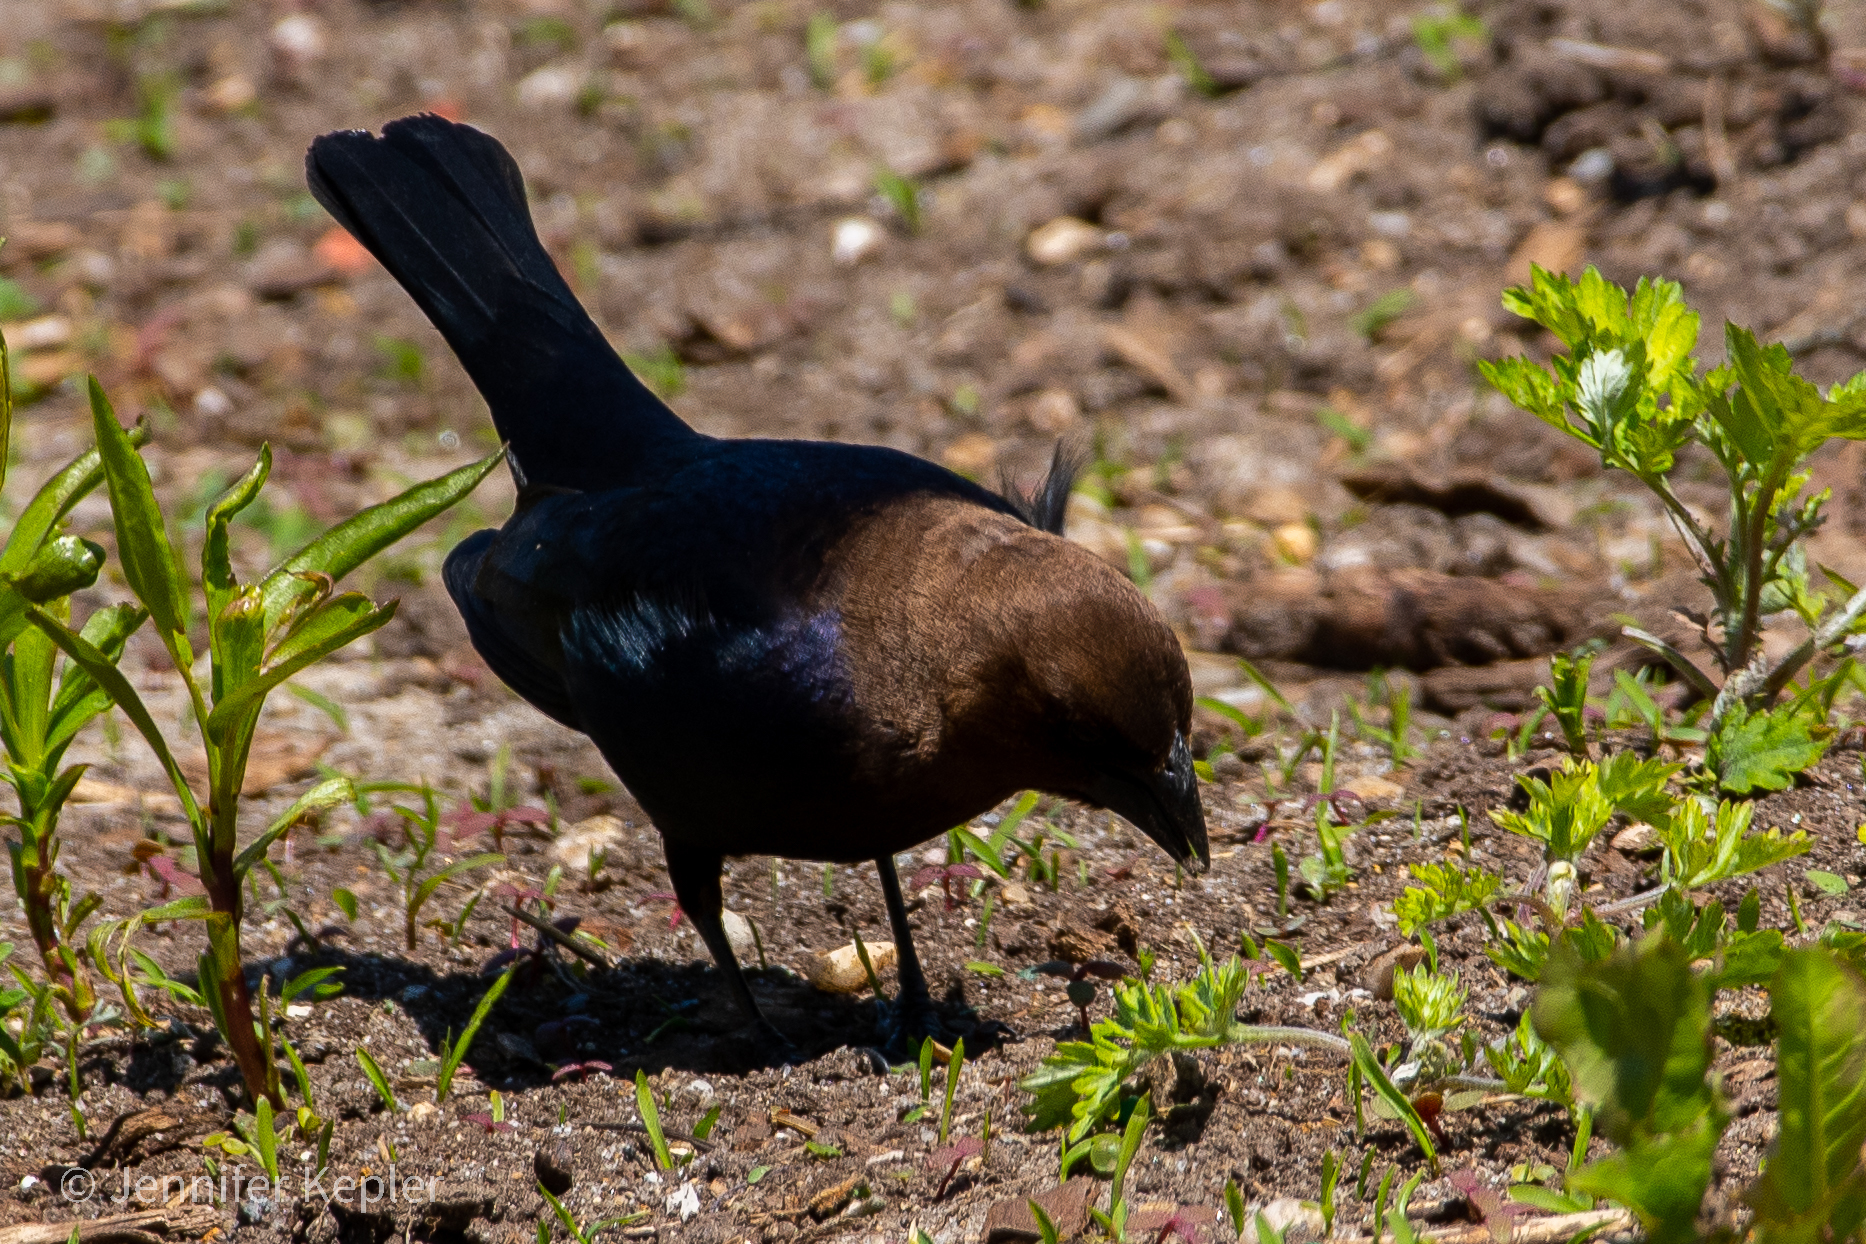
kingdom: Animalia
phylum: Chordata
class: Aves
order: Passeriformes
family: Icteridae
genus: Molothrus
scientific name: Molothrus ater
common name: Brown-headed cowbird
